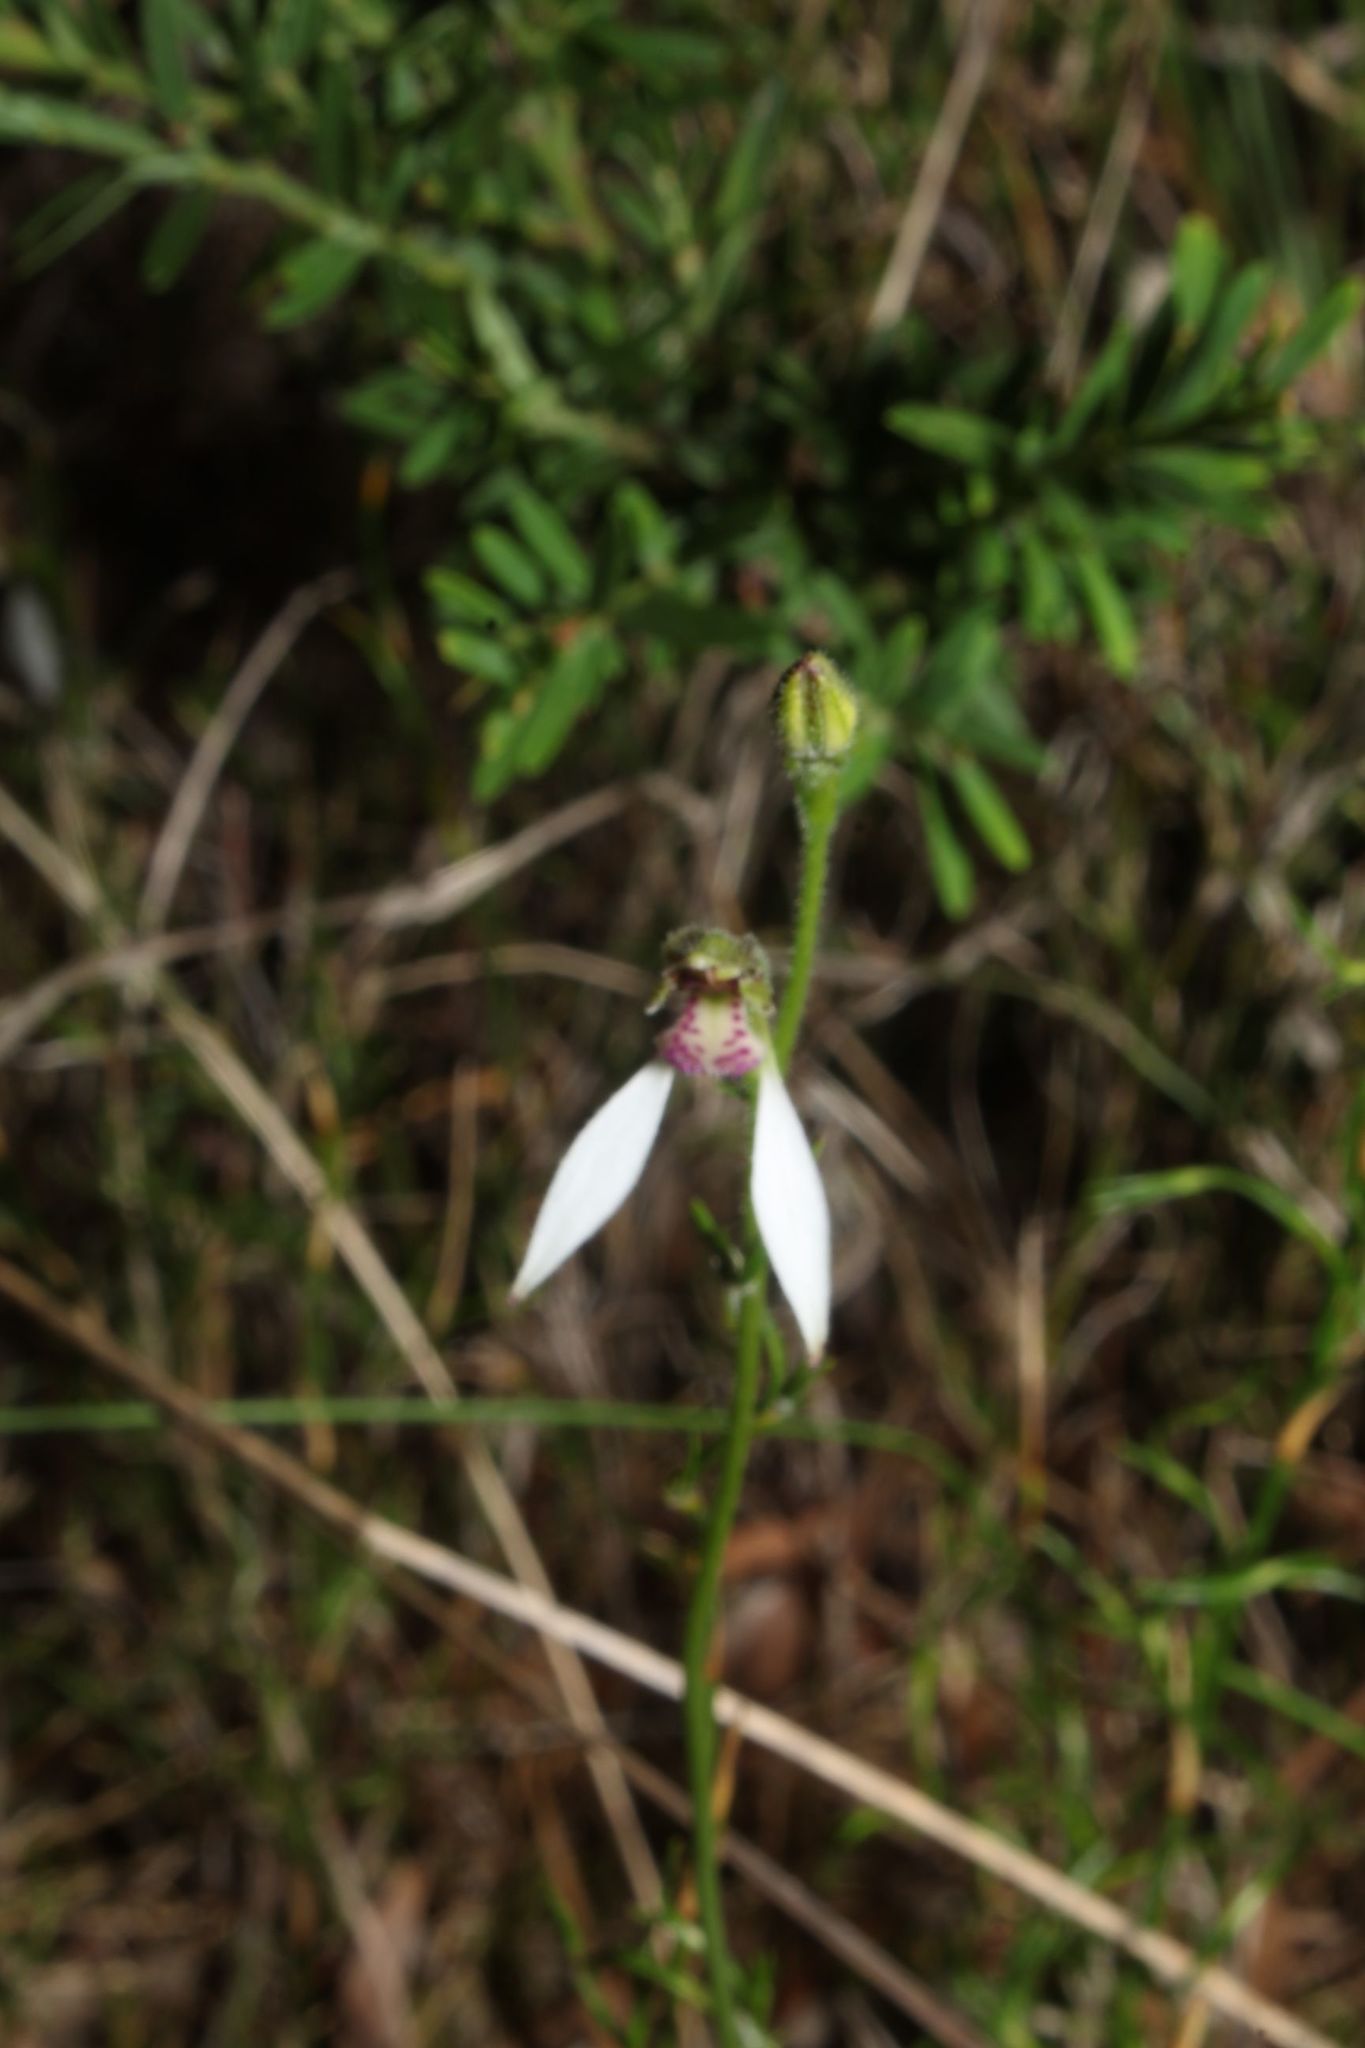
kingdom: Plantae
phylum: Tracheophyta
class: Liliopsida
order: Asparagales
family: Orchidaceae
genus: Eriochilus
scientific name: Eriochilus dilatatus
